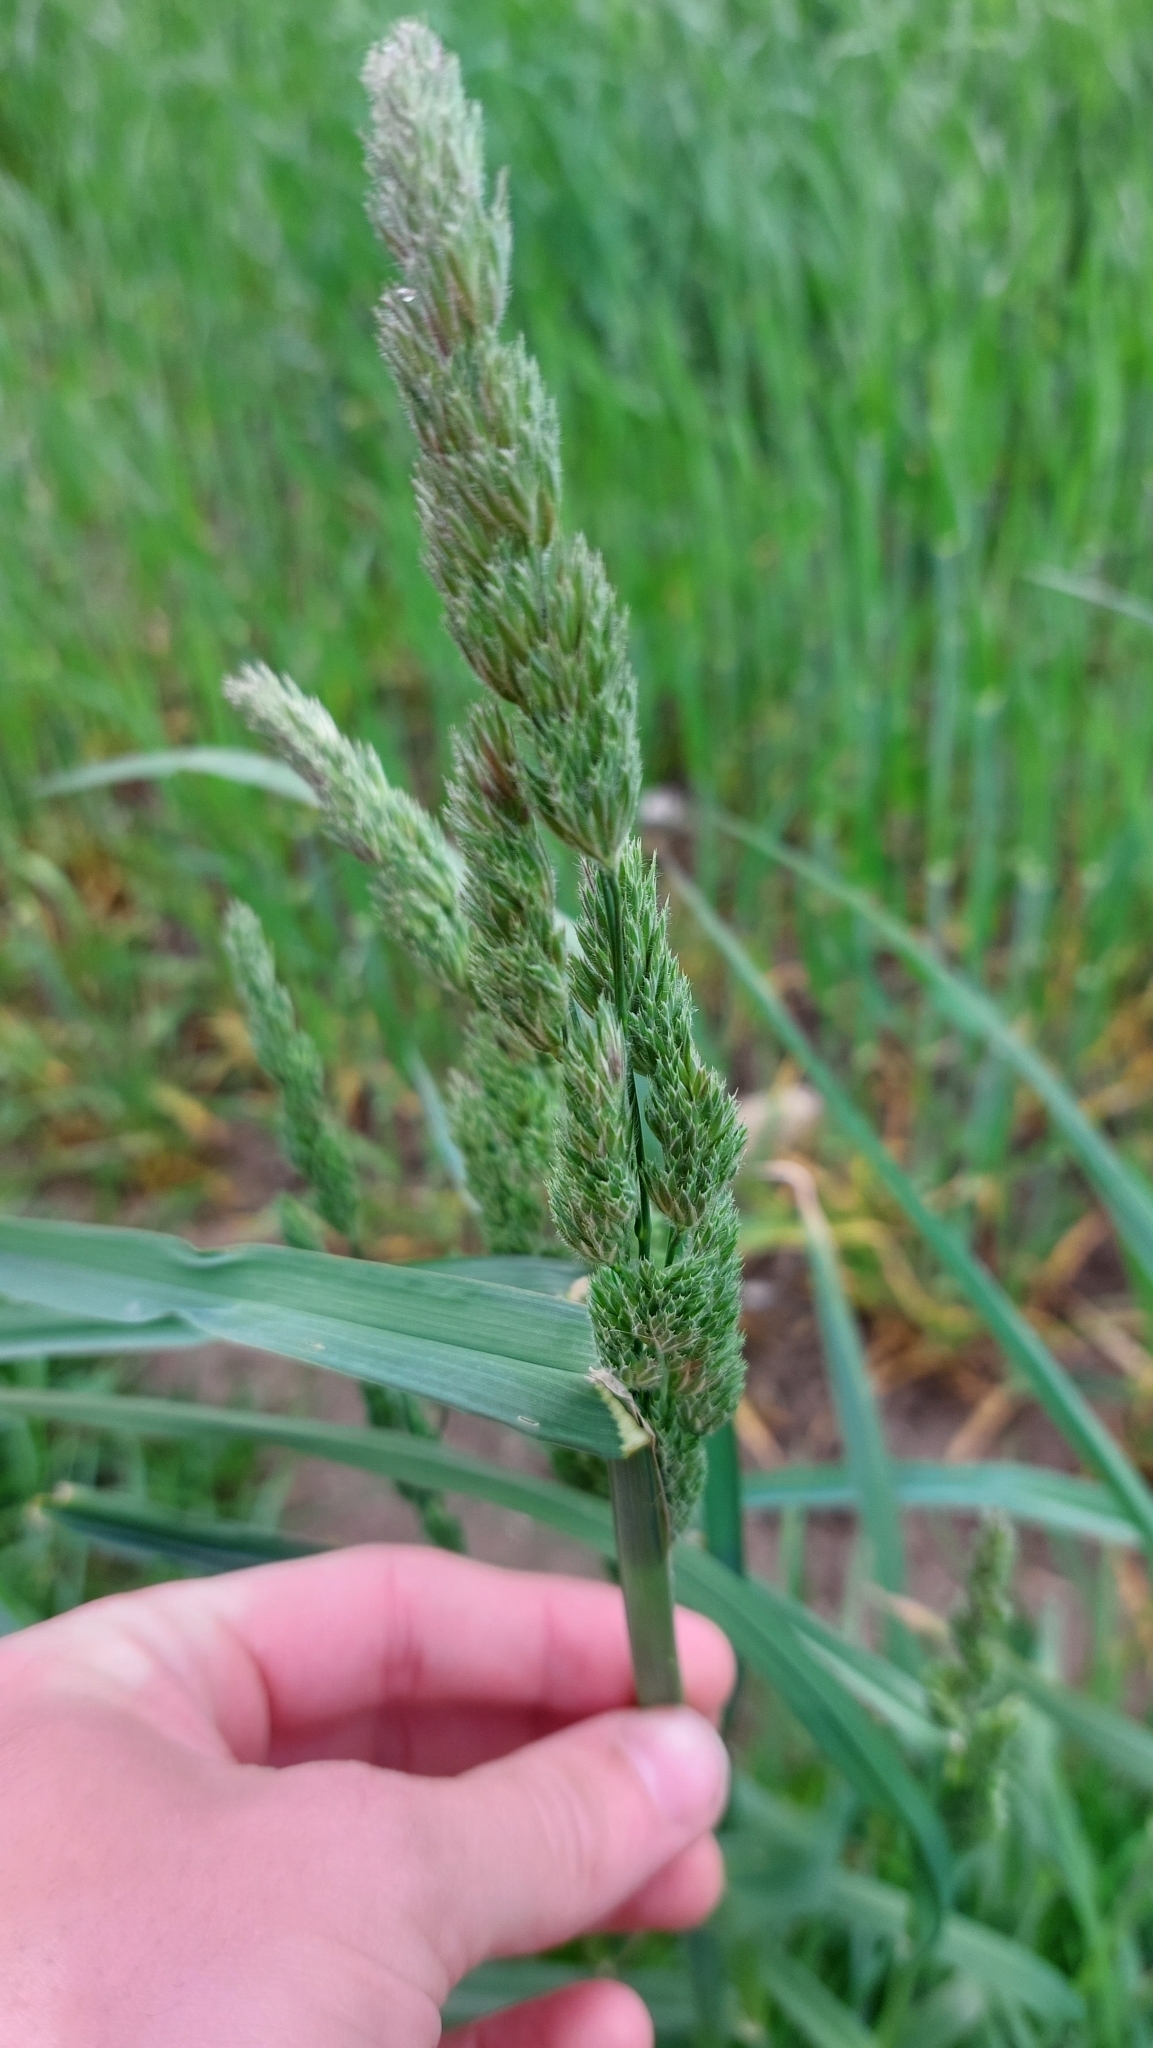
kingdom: Plantae
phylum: Tracheophyta
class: Liliopsida
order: Poales
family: Poaceae
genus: Dactylis
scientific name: Dactylis glomerata
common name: Orchardgrass
